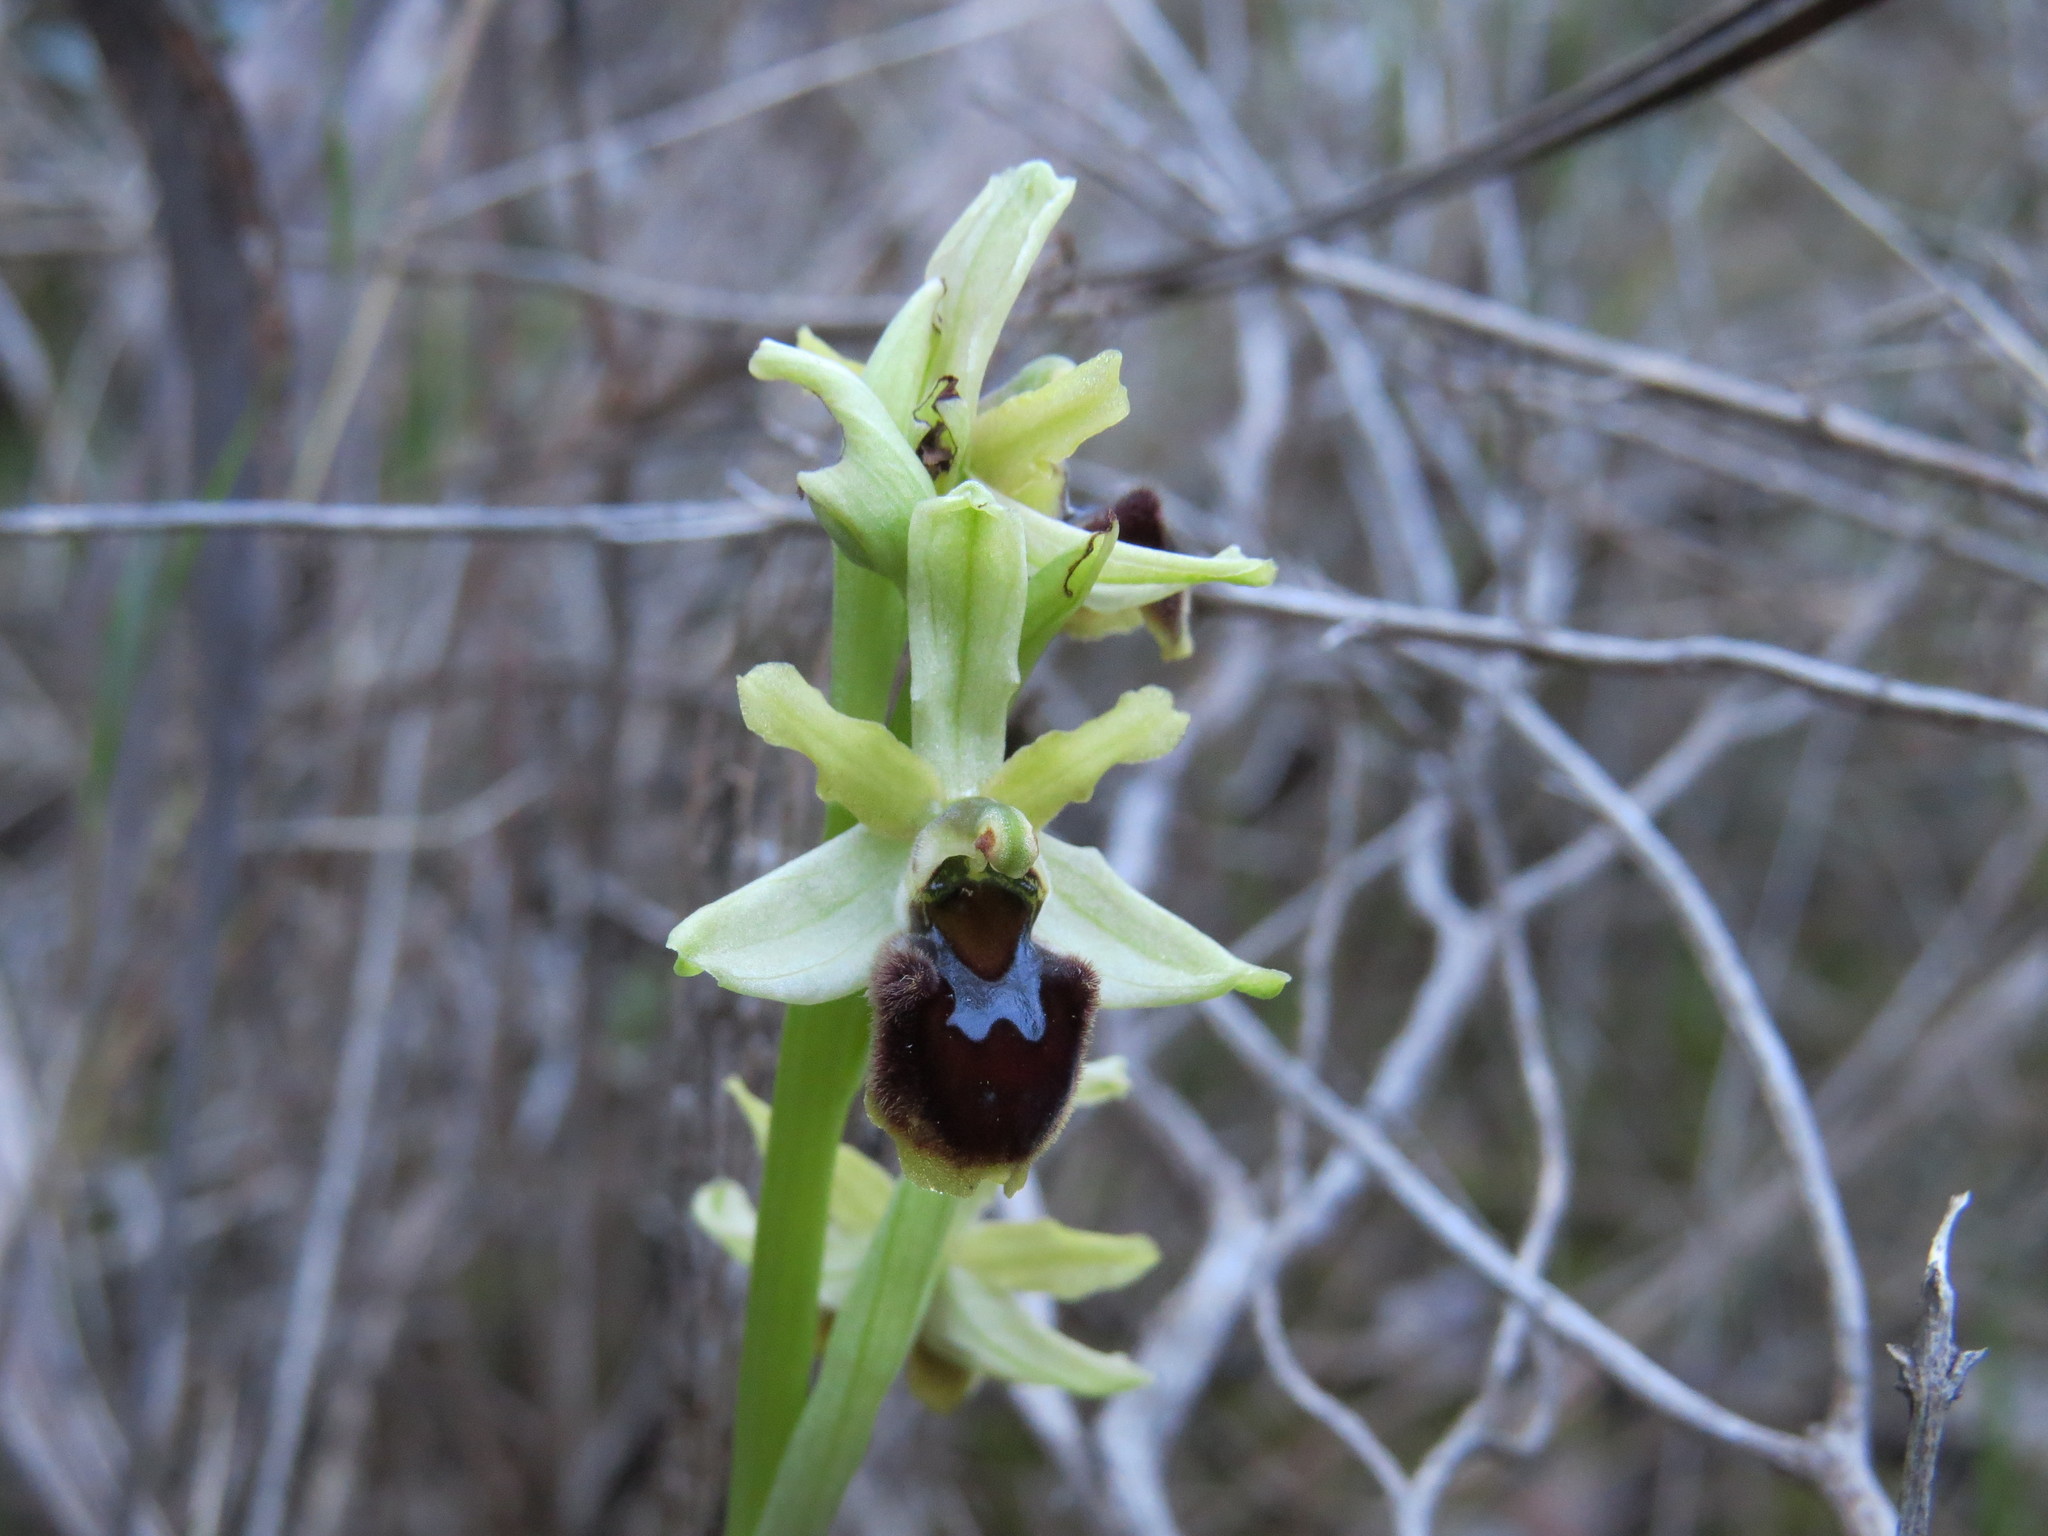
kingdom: Plantae
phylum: Tracheophyta
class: Liliopsida
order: Asparagales
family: Orchidaceae
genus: Ophrys
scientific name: Ophrys sphegodes
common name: Early spider-orchid
